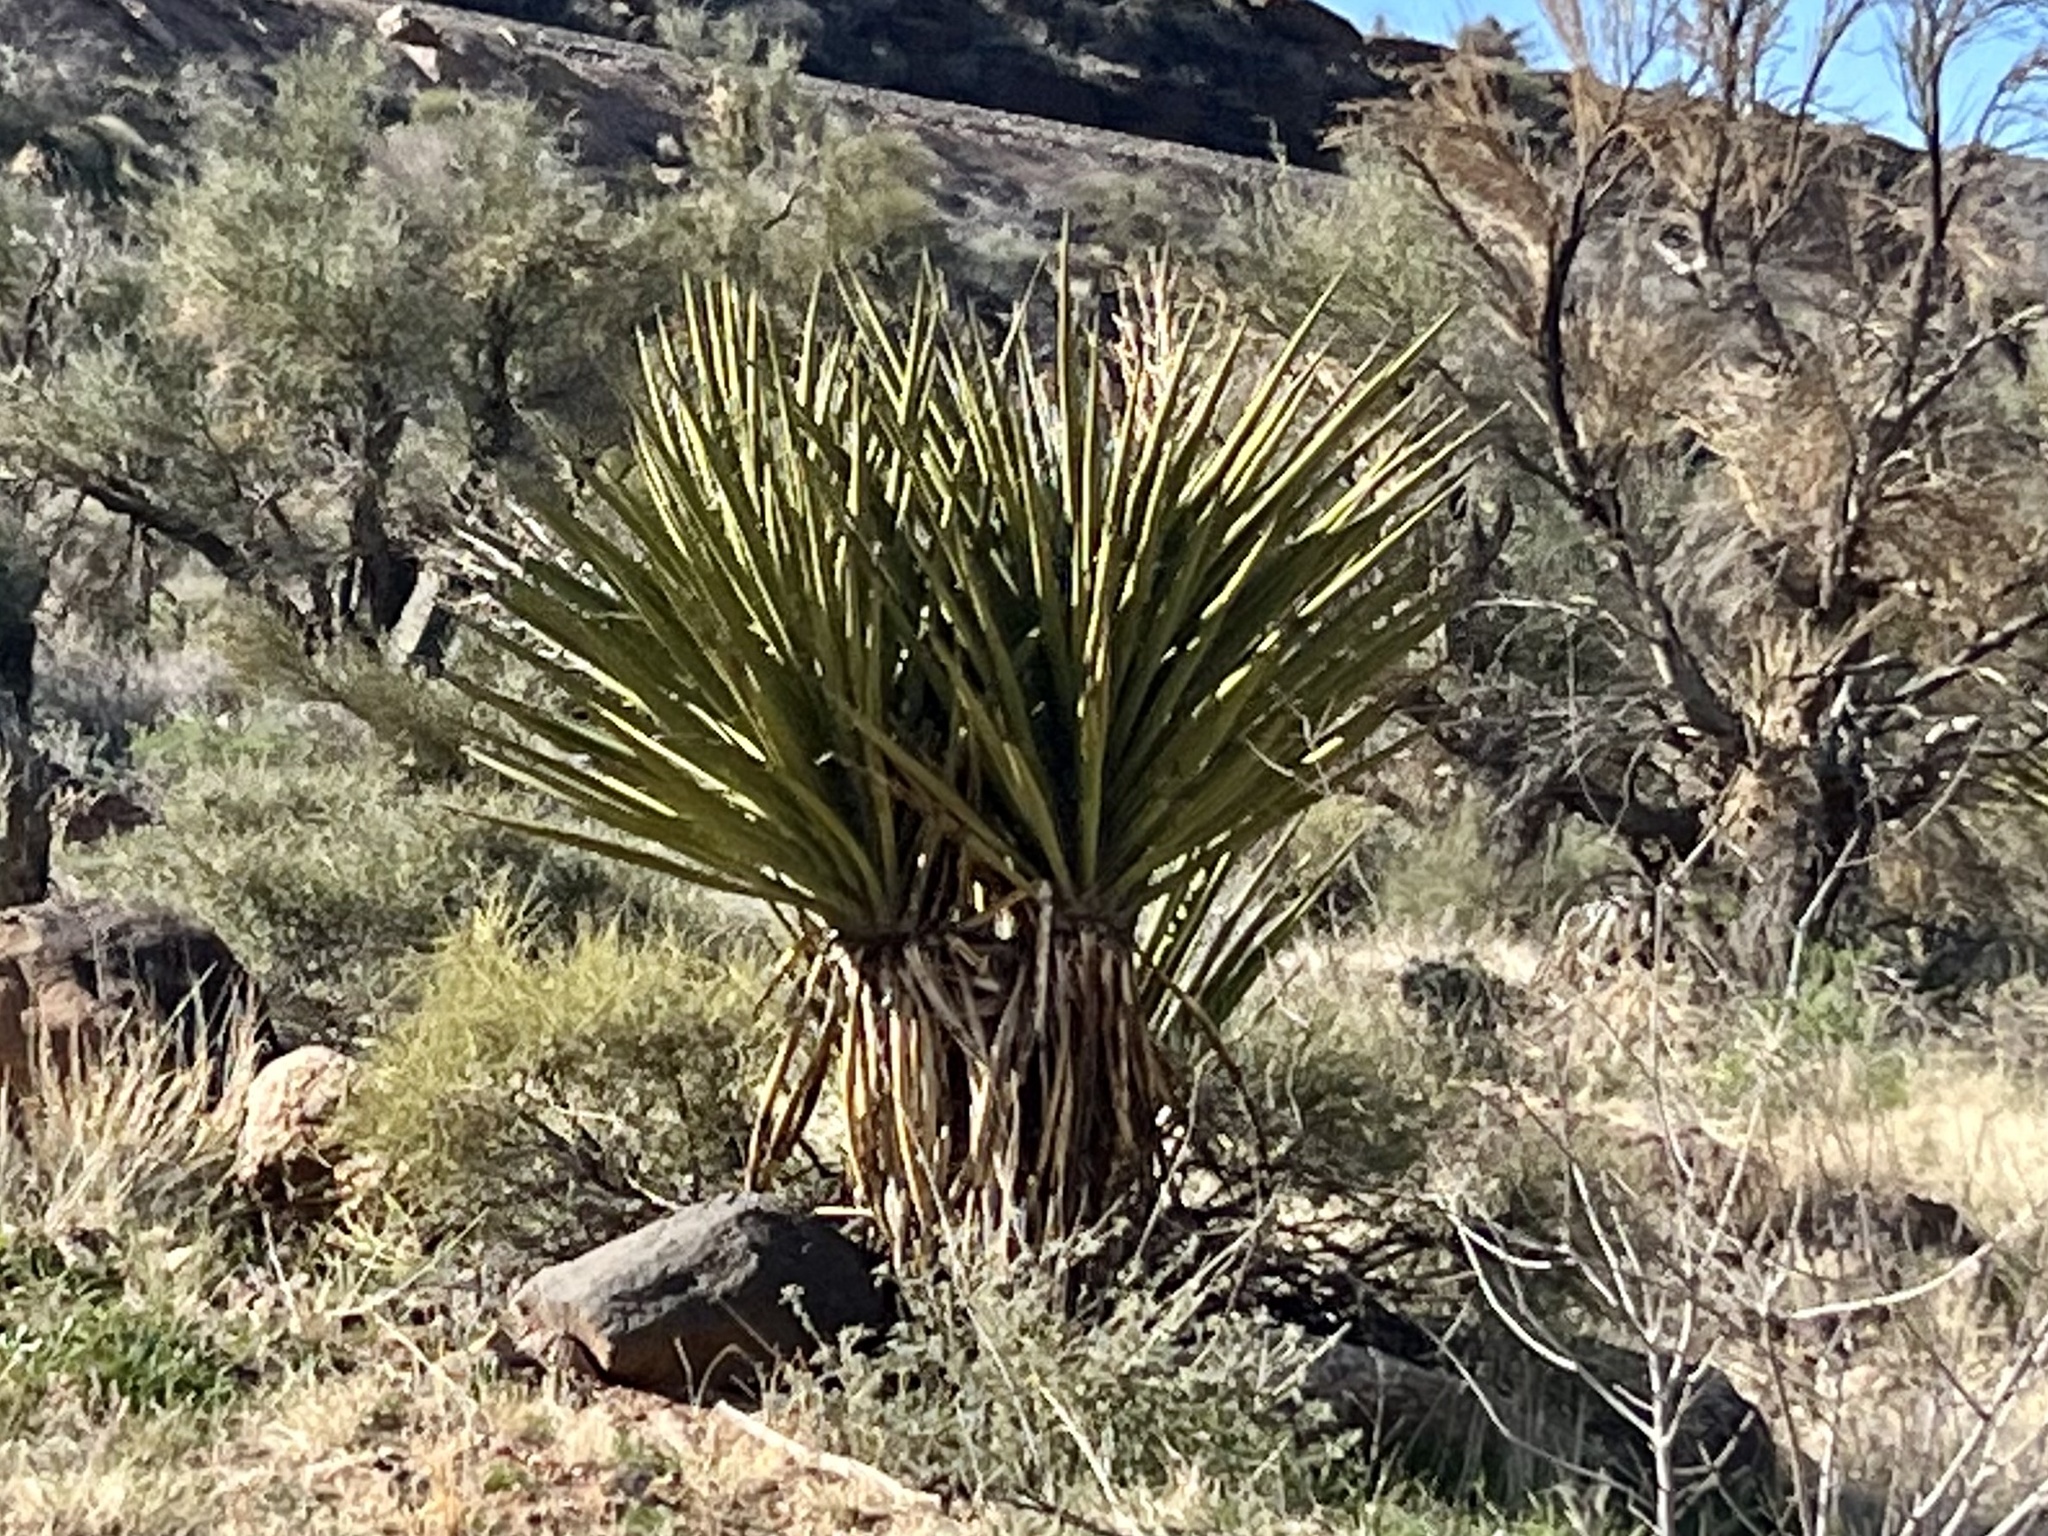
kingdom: Plantae
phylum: Tracheophyta
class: Liliopsida
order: Asparagales
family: Asparagaceae
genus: Yucca
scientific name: Yucca schidigera
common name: Mojave yucca
